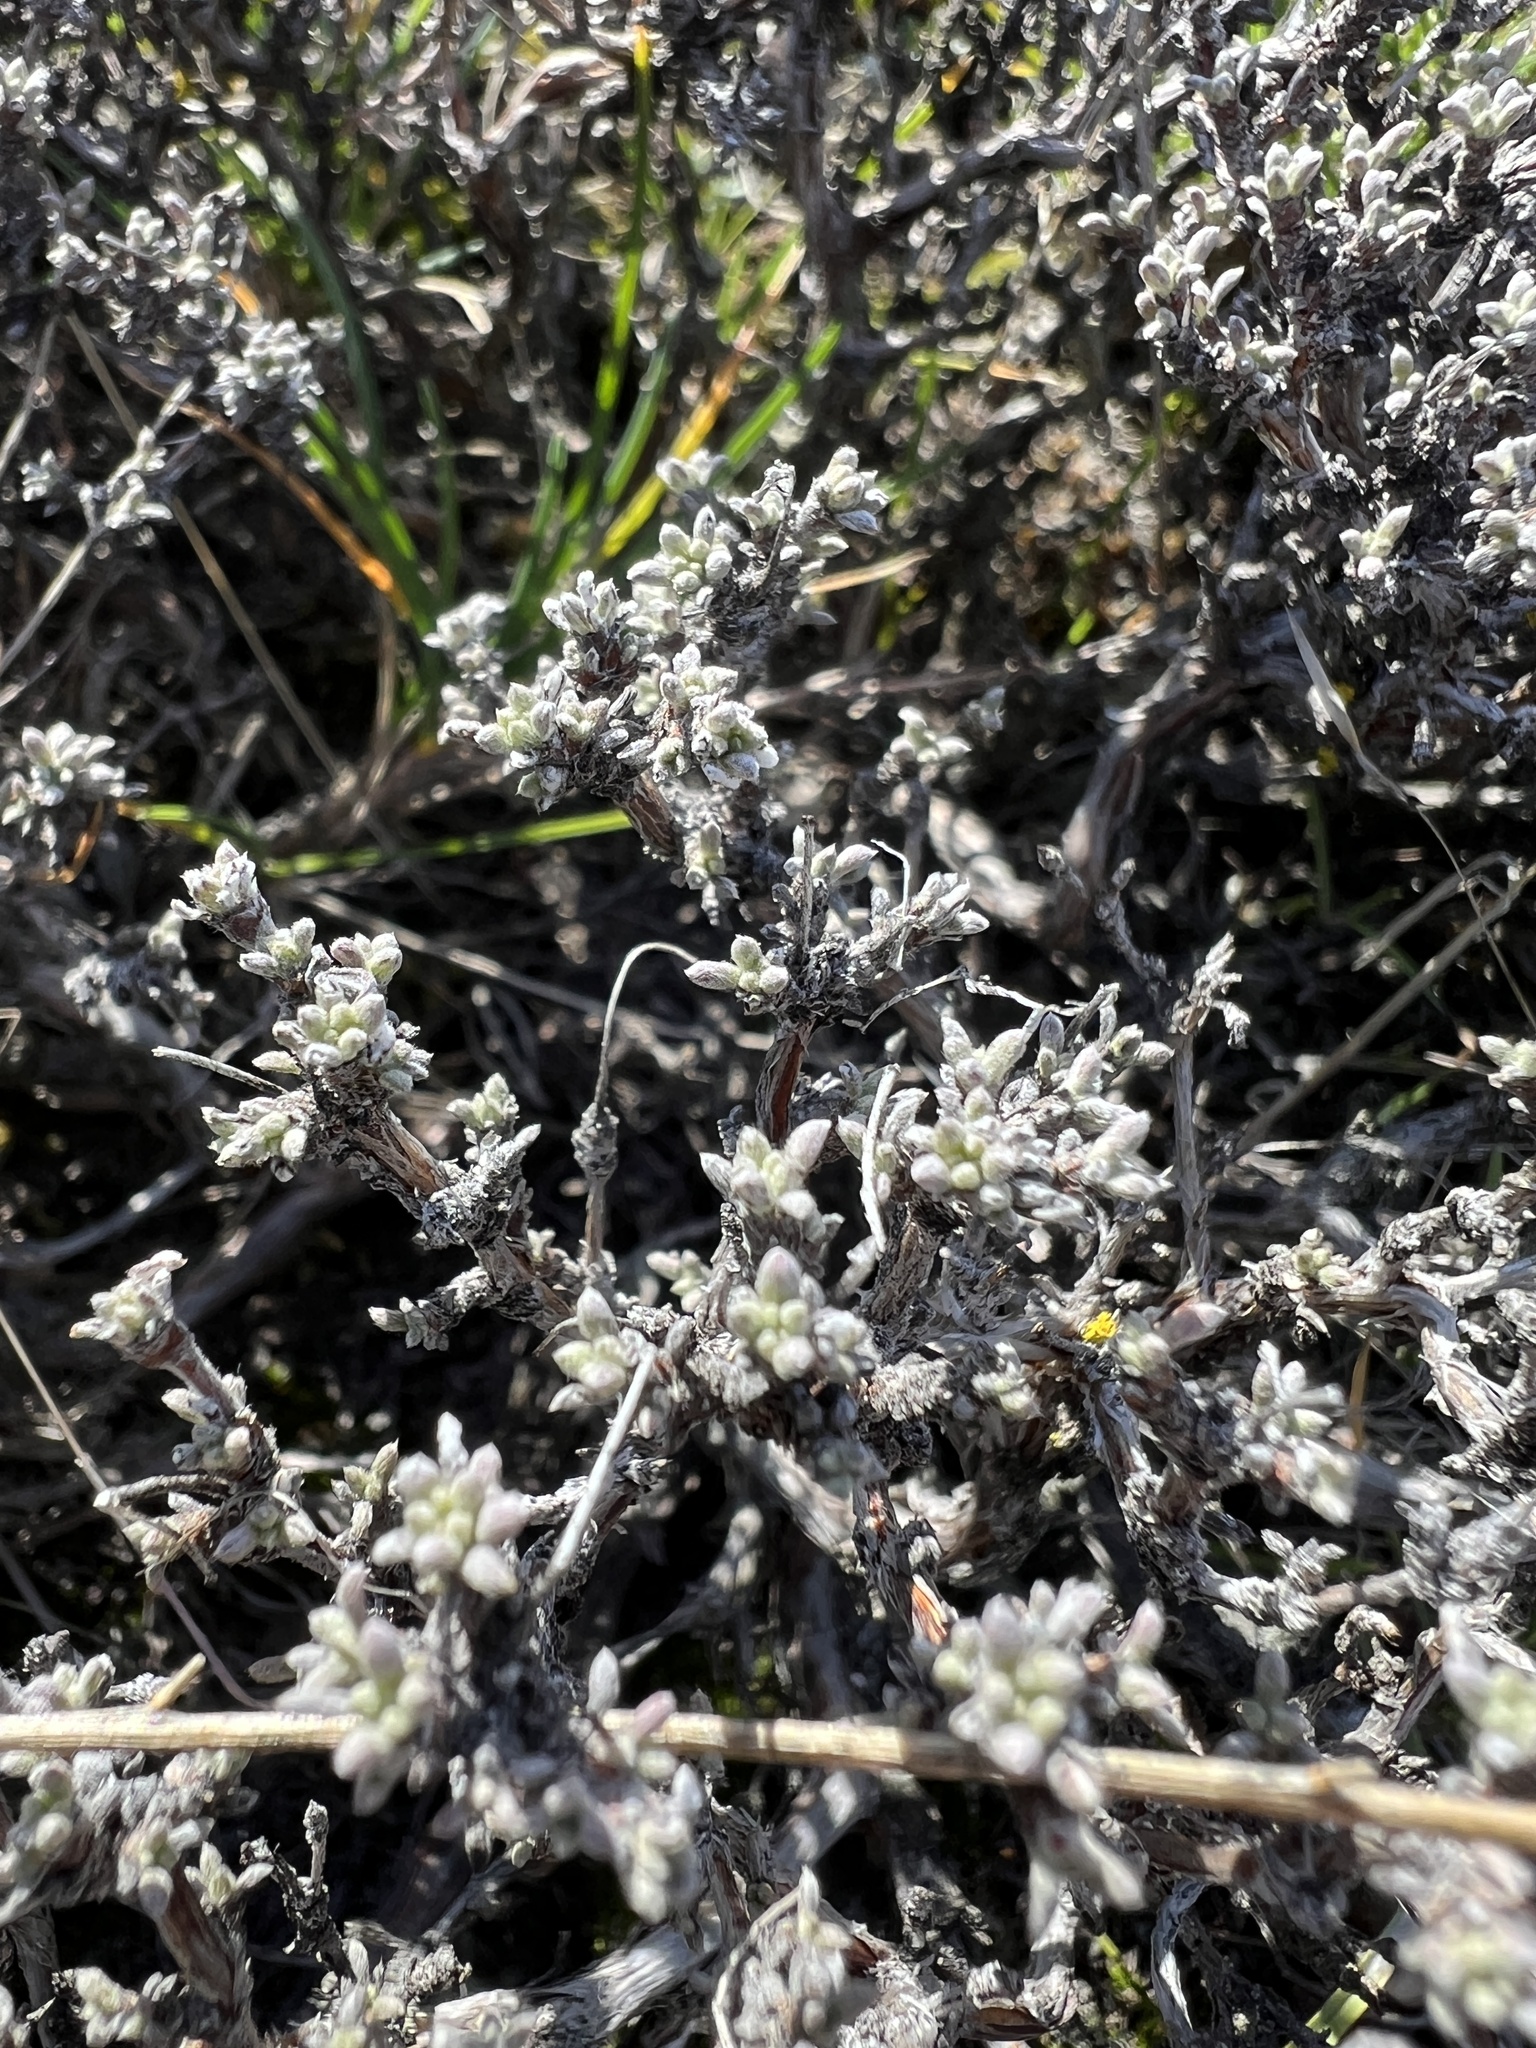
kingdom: Plantae
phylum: Tracheophyta
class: Magnoliopsida
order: Caryophyllales
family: Polygonaceae
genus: Eriogonum
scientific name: Eriogonum thymoides
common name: Thyme-leaf wild buckwheat
